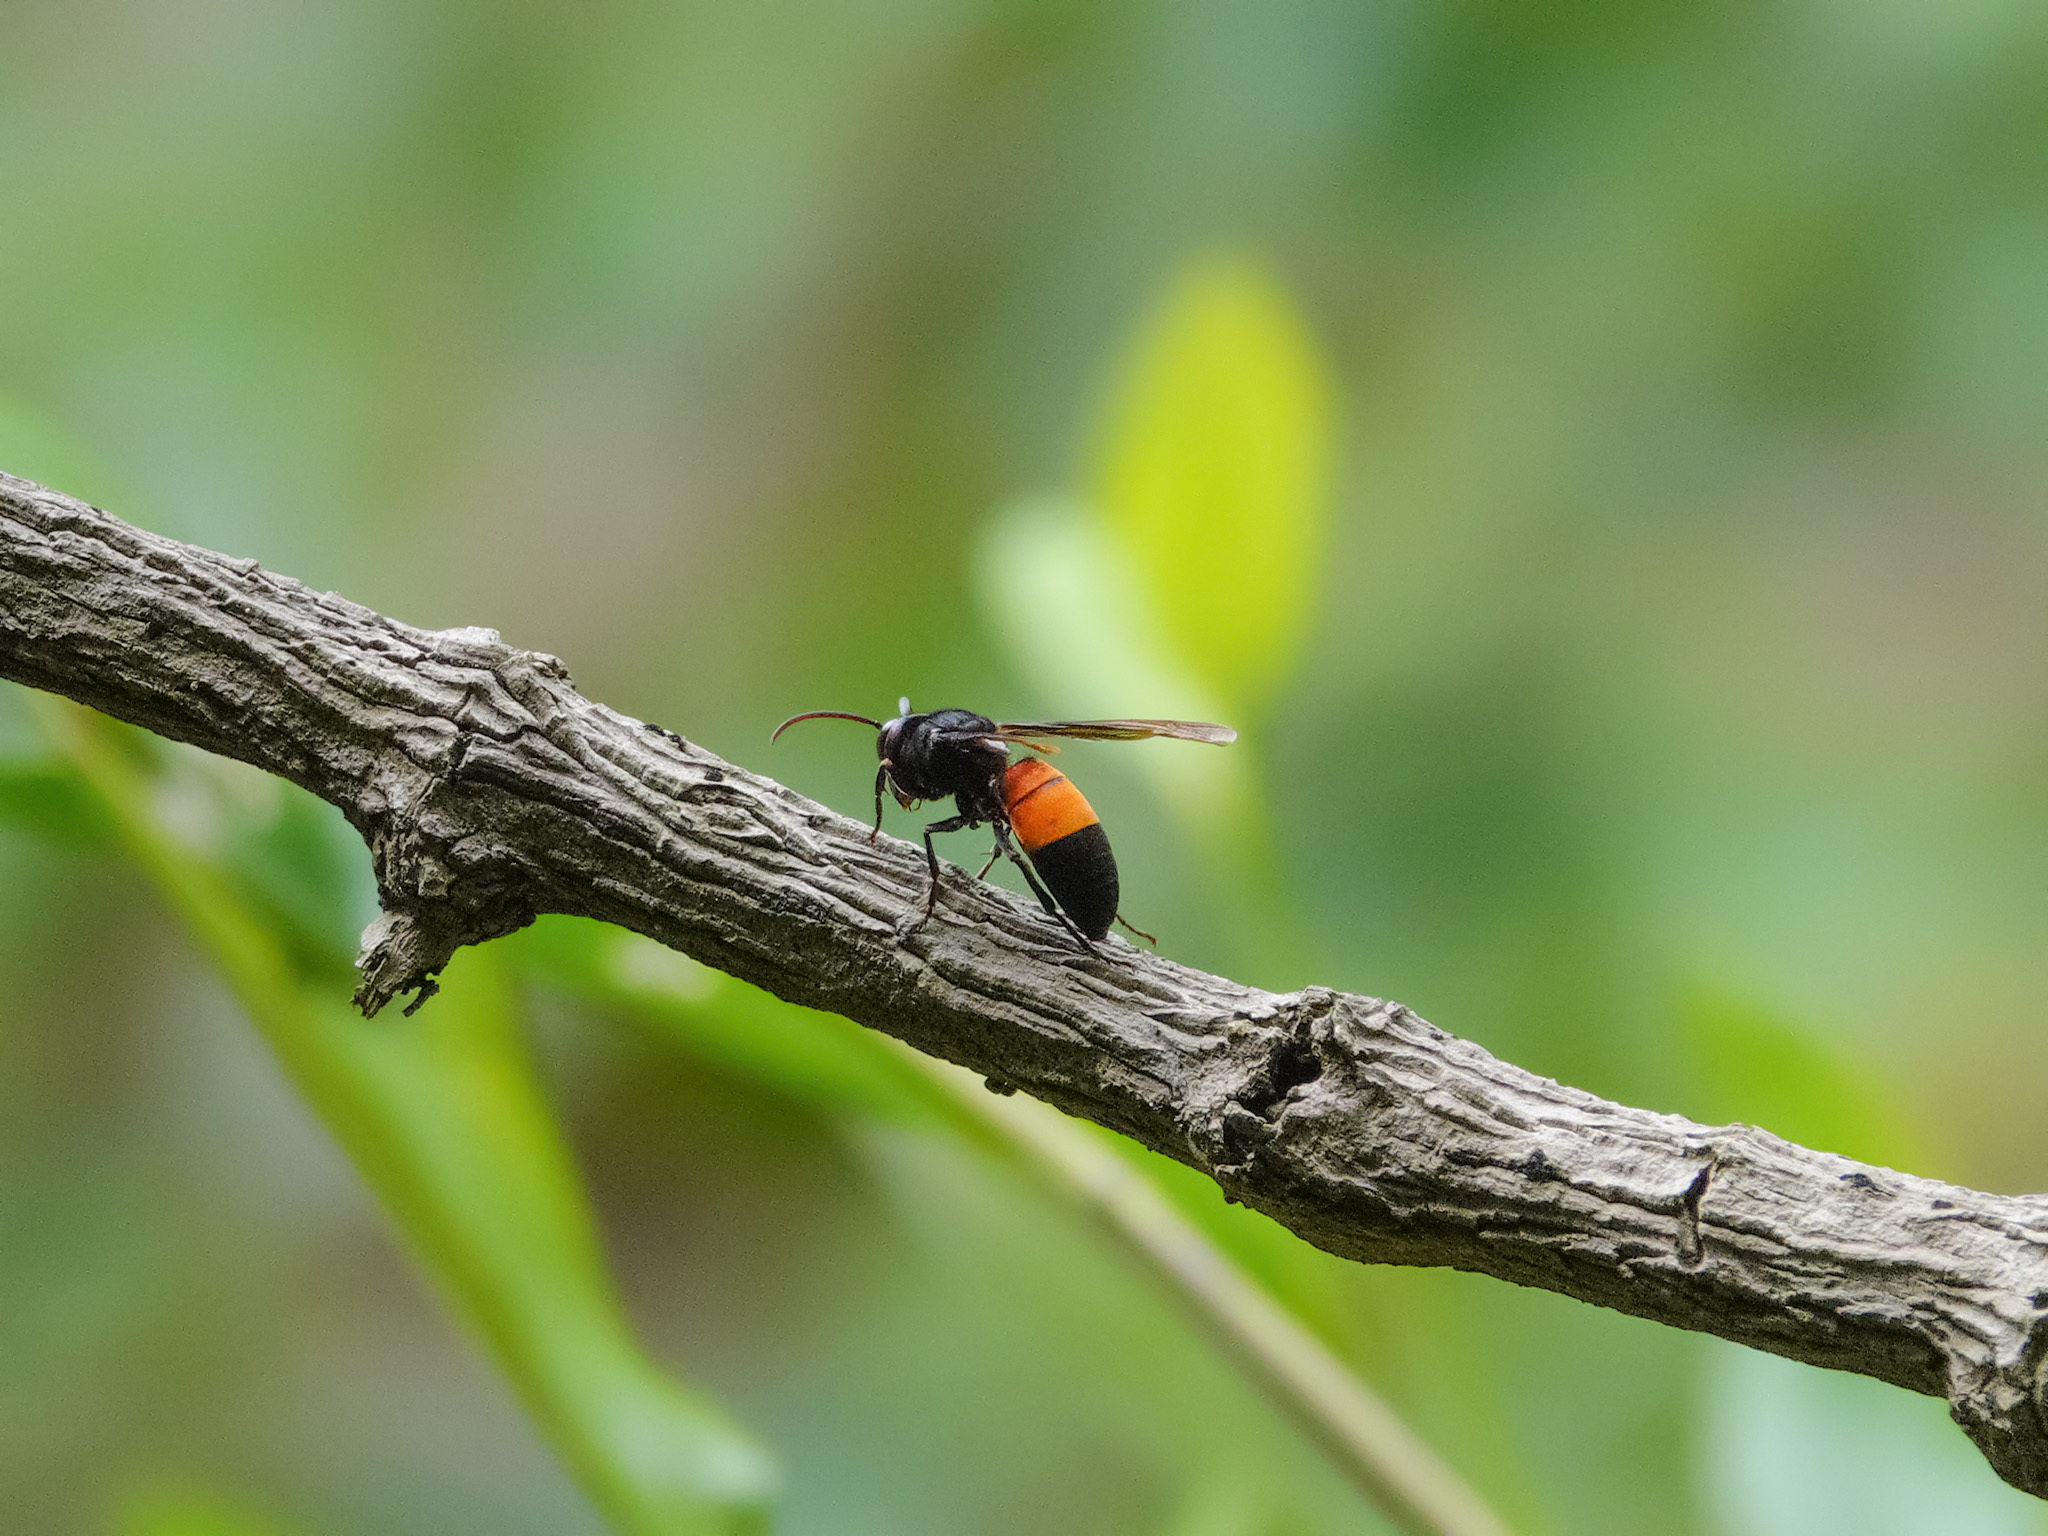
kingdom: Animalia
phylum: Arthropoda
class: Insecta
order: Hymenoptera
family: Vespidae
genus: Vespa
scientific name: Vespa affinis
